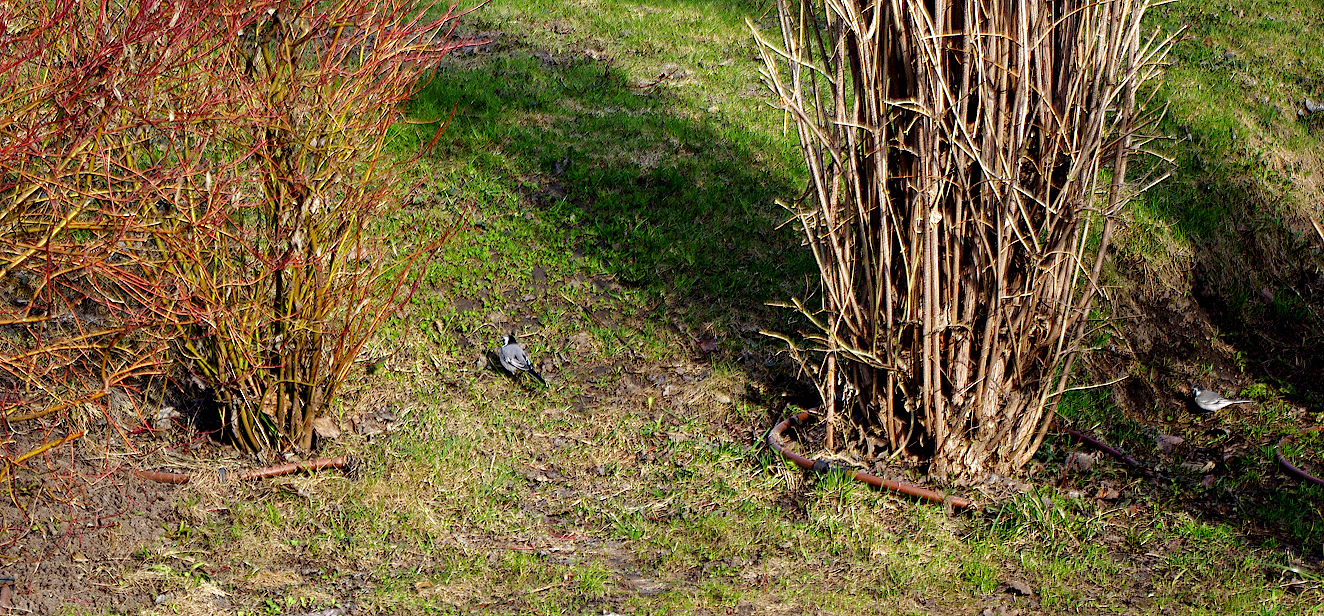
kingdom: Animalia
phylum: Chordata
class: Aves
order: Passeriformes
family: Motacillidae
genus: Motacilla
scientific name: Motacilla alba
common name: White wagtail
